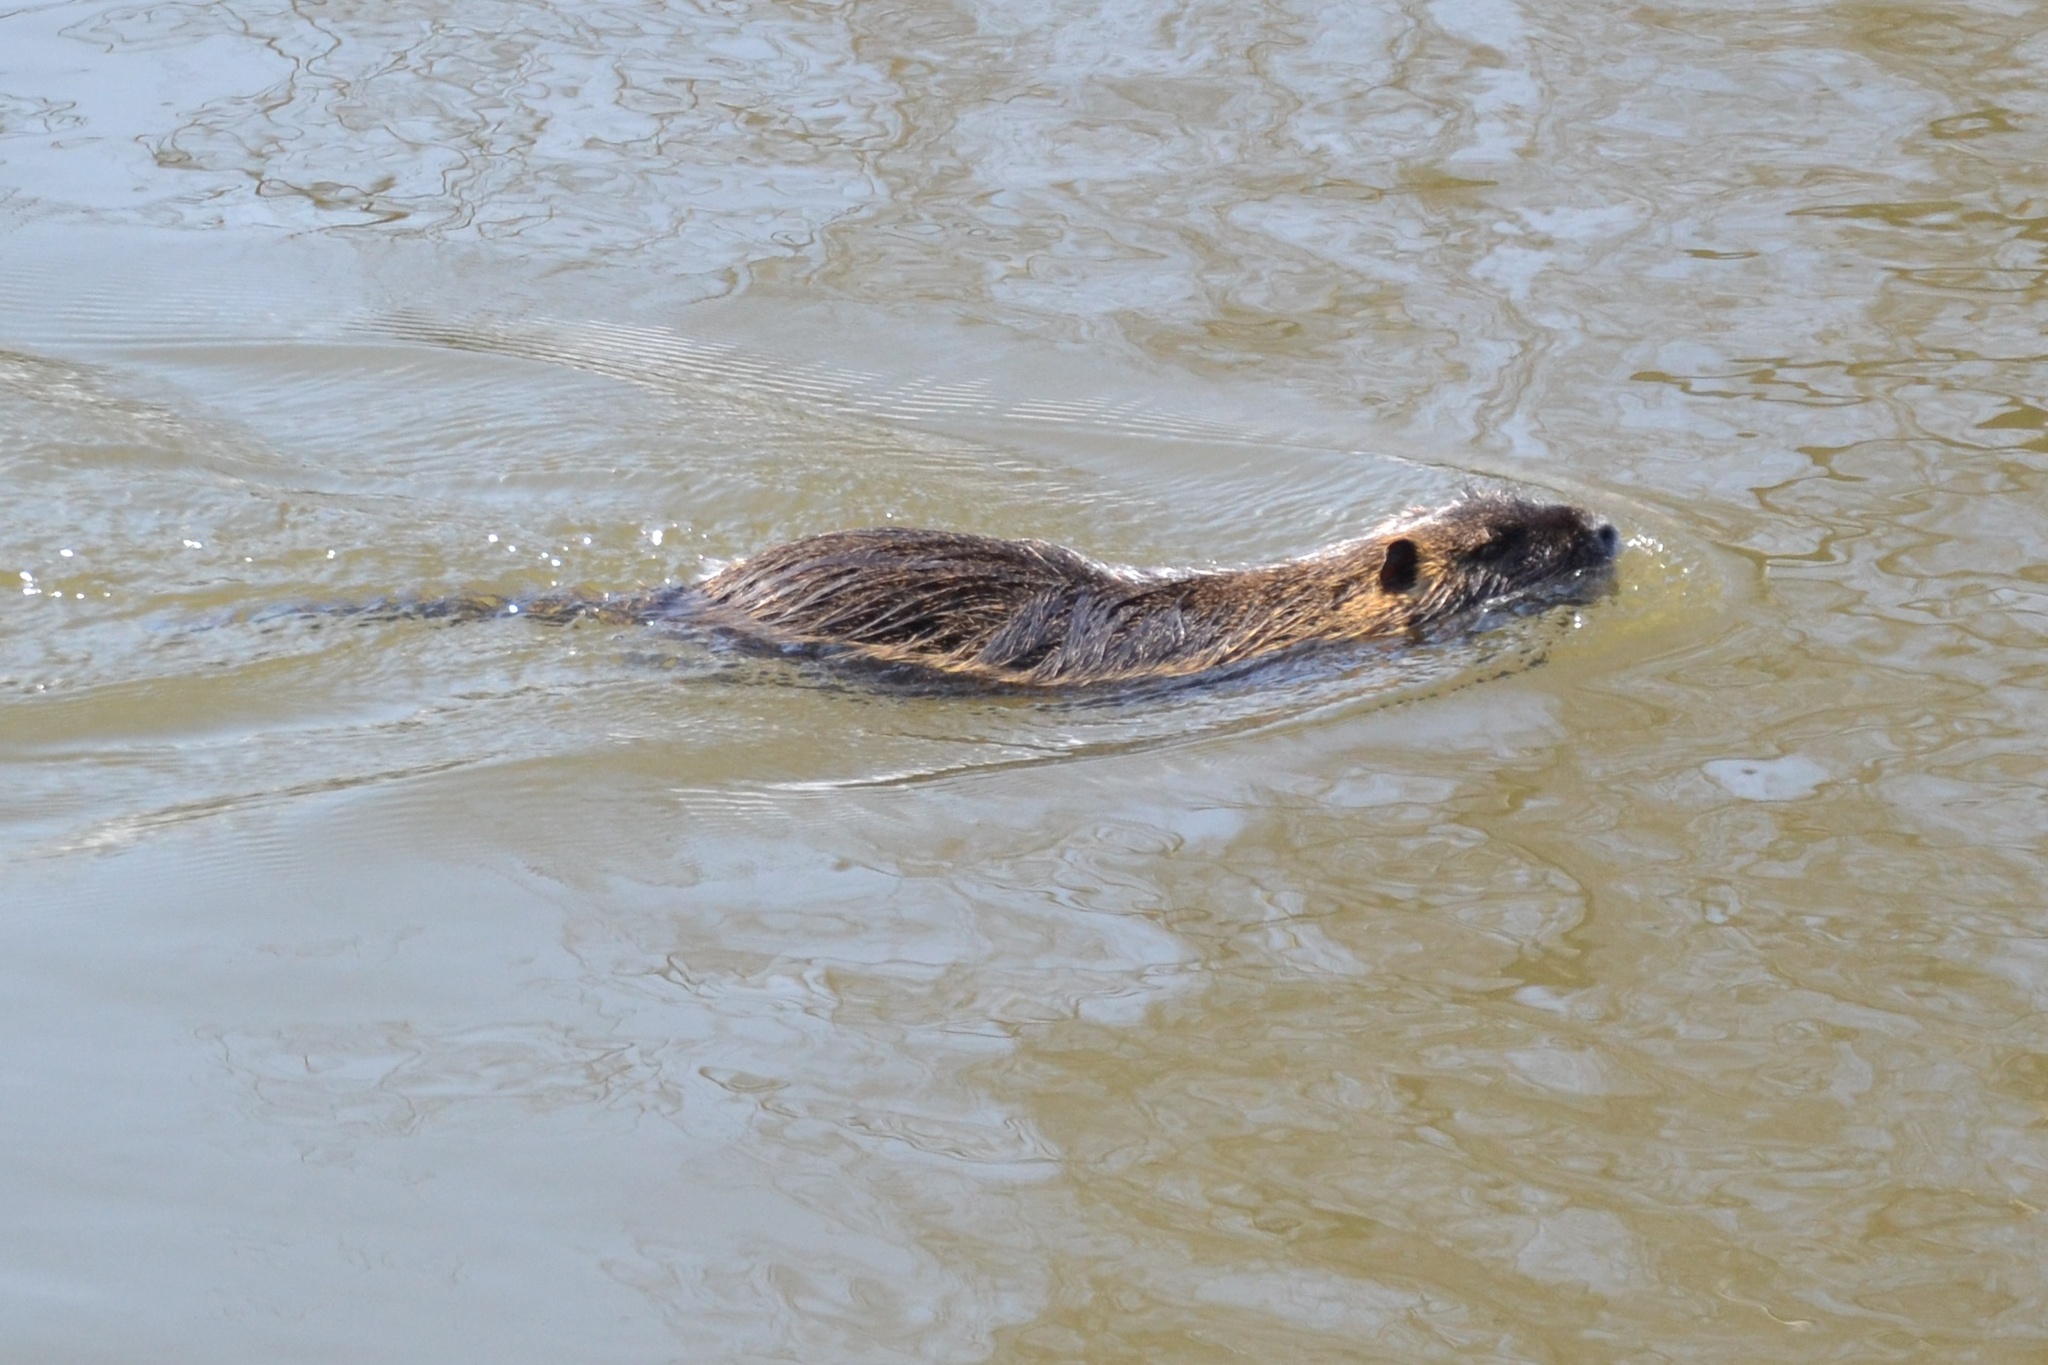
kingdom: Animalia
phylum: Chordata
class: Mammalia
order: Rodentia
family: Myocastoridae
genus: Myocastor
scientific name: Myocastor coypus
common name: Coypu
